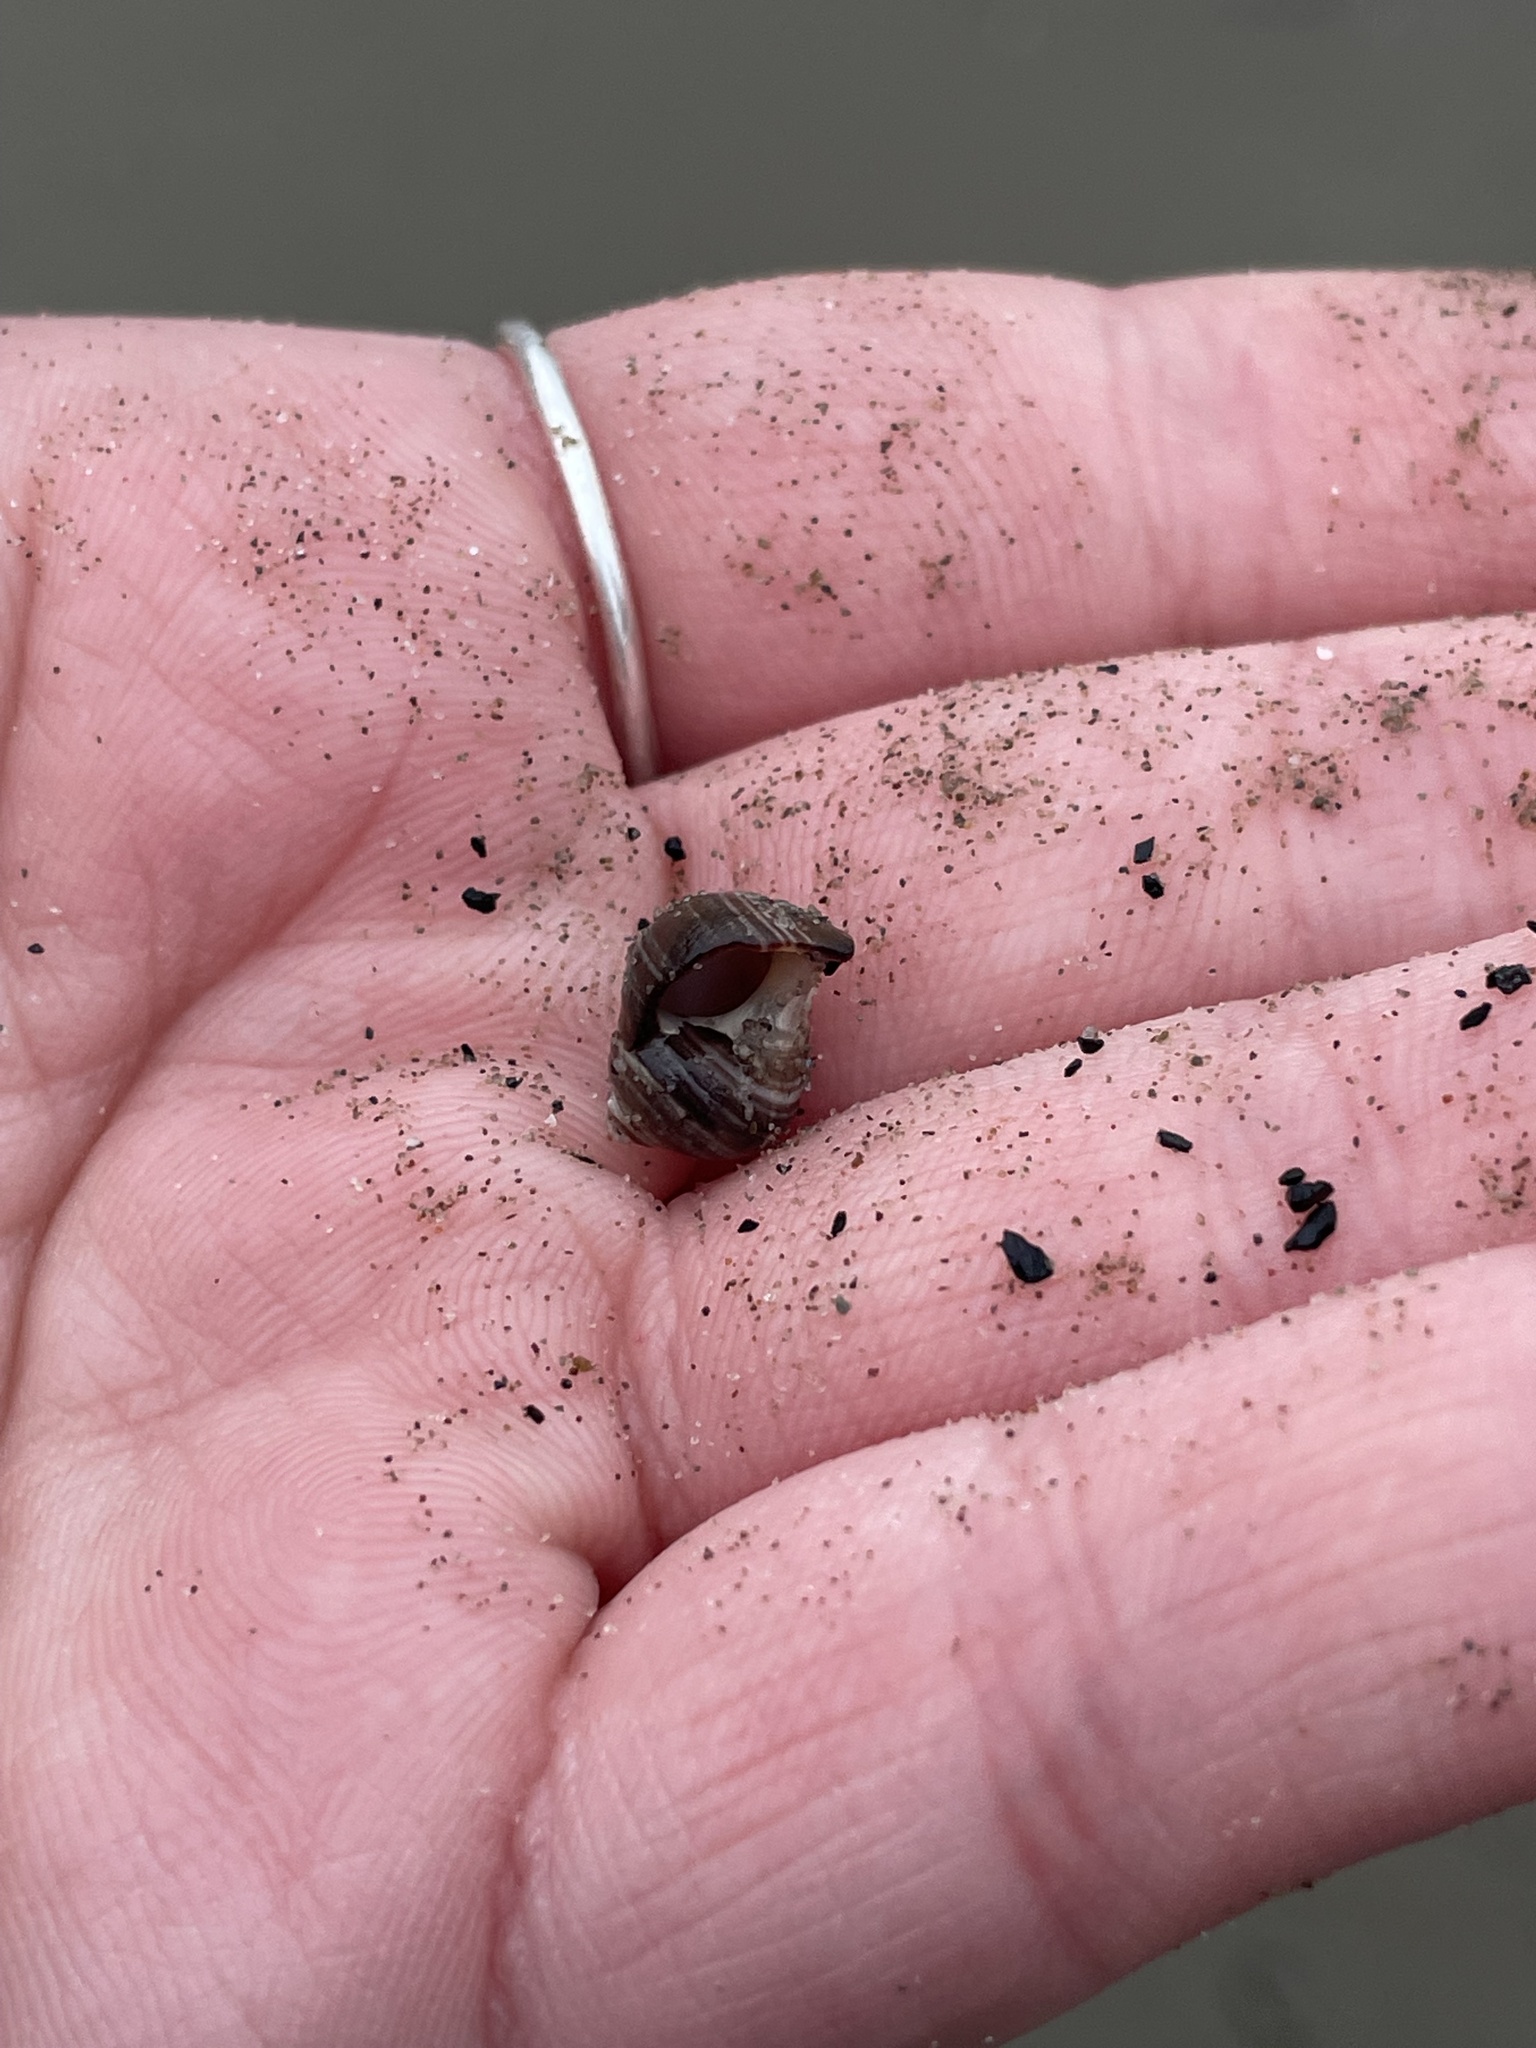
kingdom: Animalia
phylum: Mollusca
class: Gastropoda
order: Littorinimorpha
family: Littorinidae
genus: Littorina
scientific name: Littorina littorea
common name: Common periwinkle
